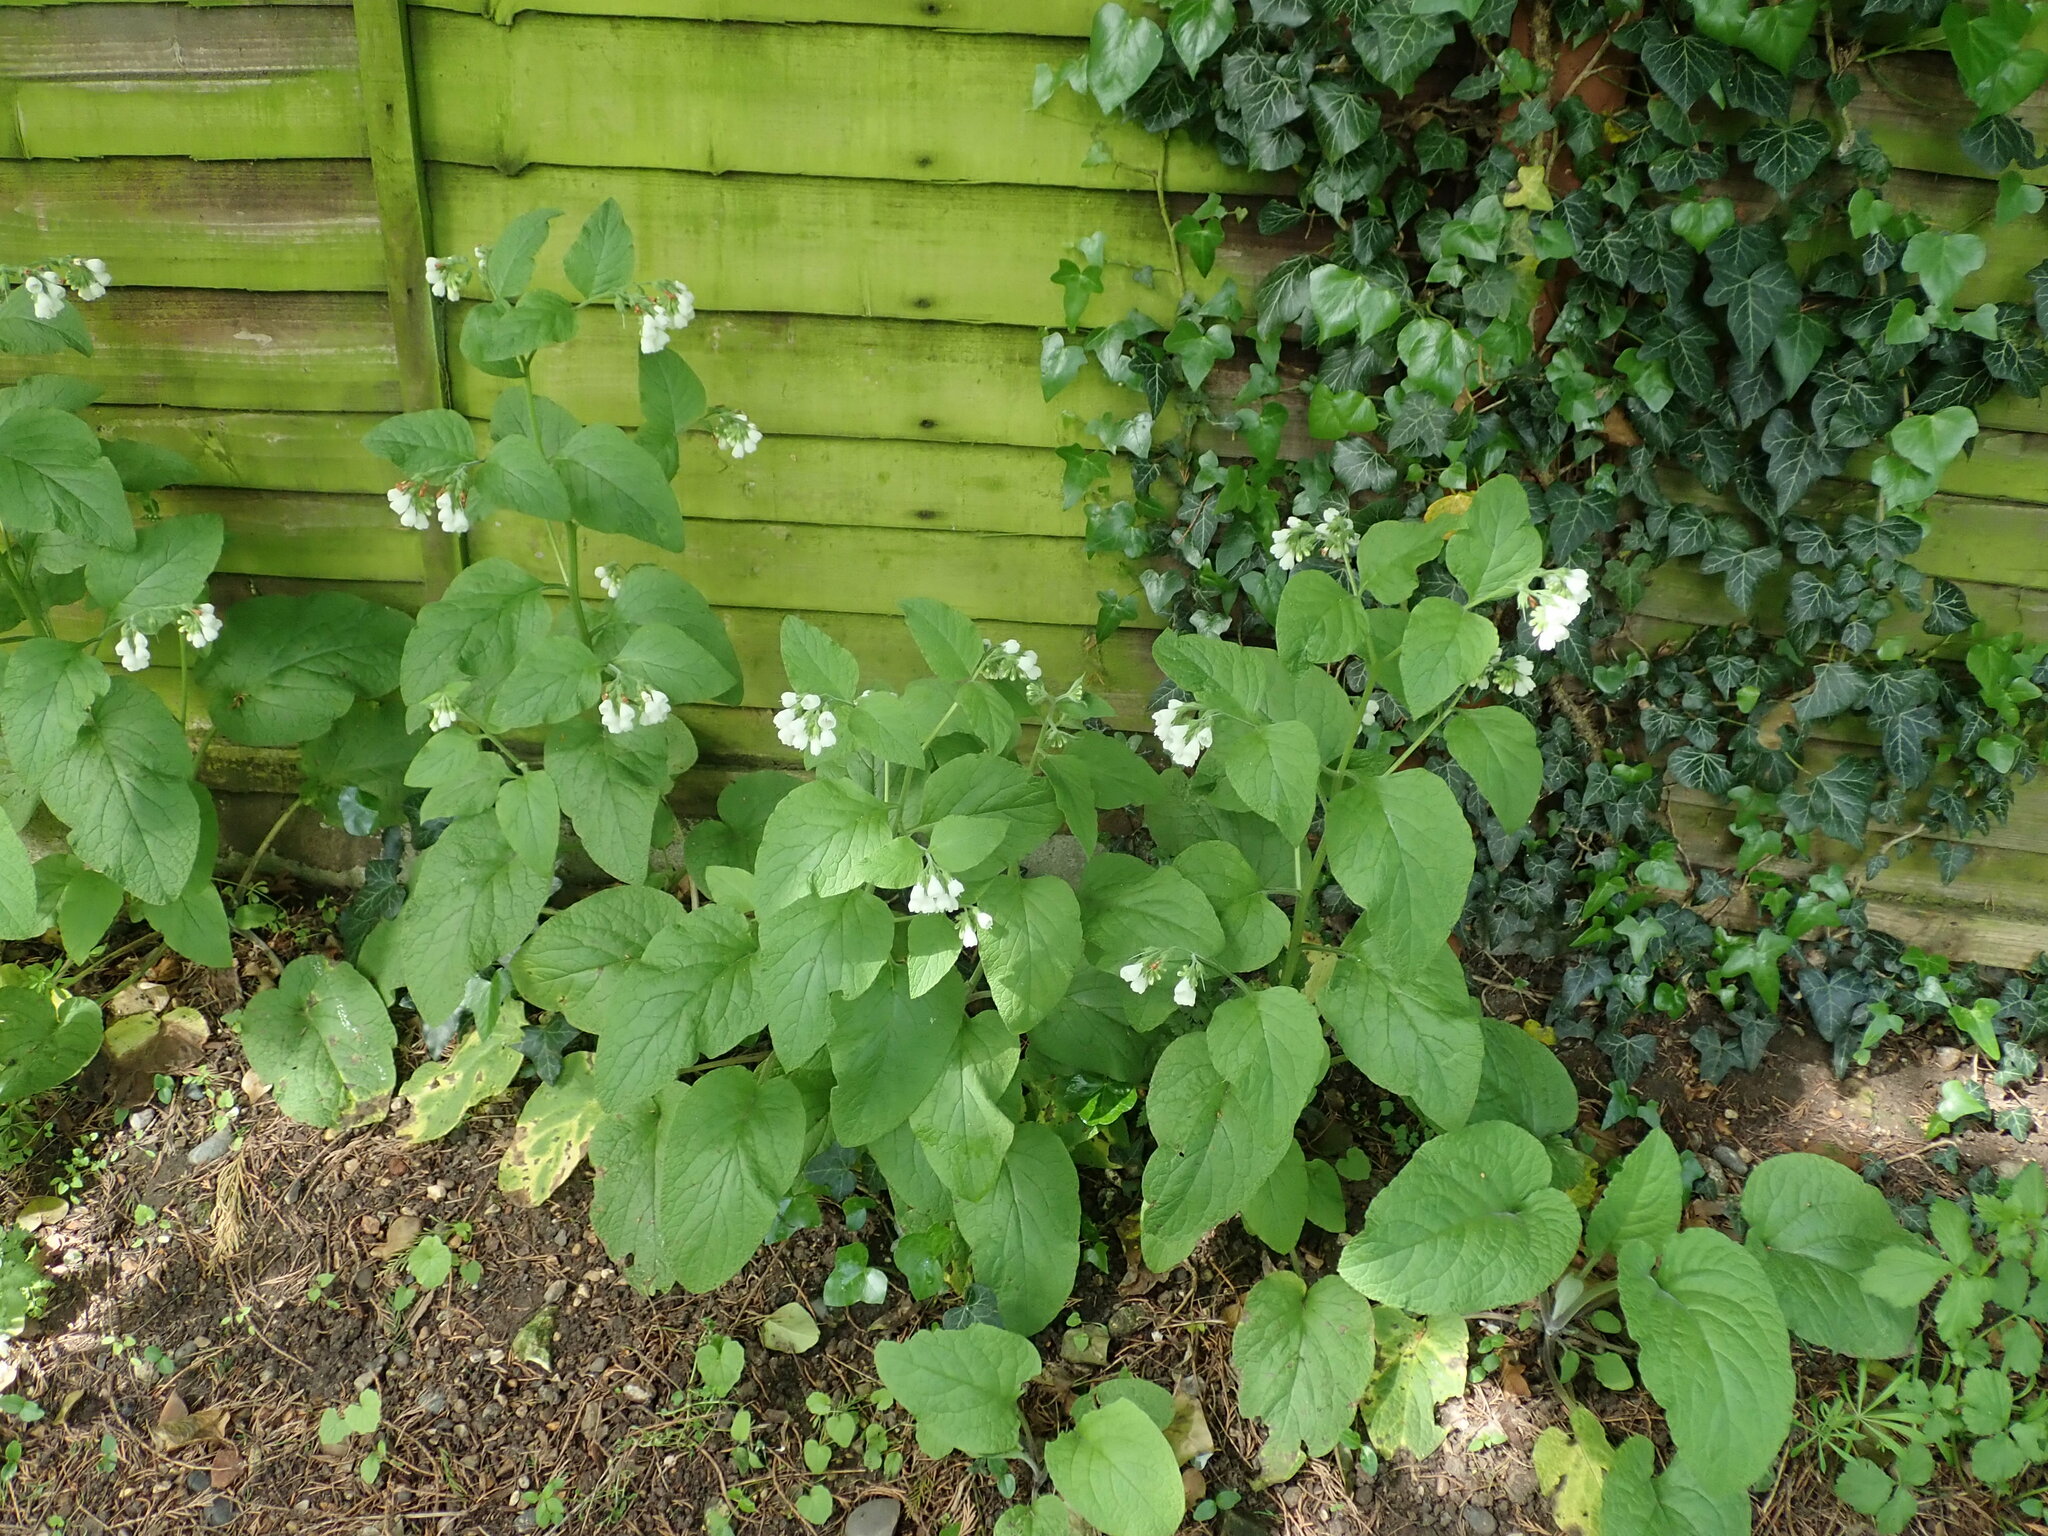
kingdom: Plantae
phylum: Tracheophyta
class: Magnoliopsida
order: Boraginales
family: Boraginaceae
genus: Symphytum
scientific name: Symphytum orientale
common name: White comfrey
